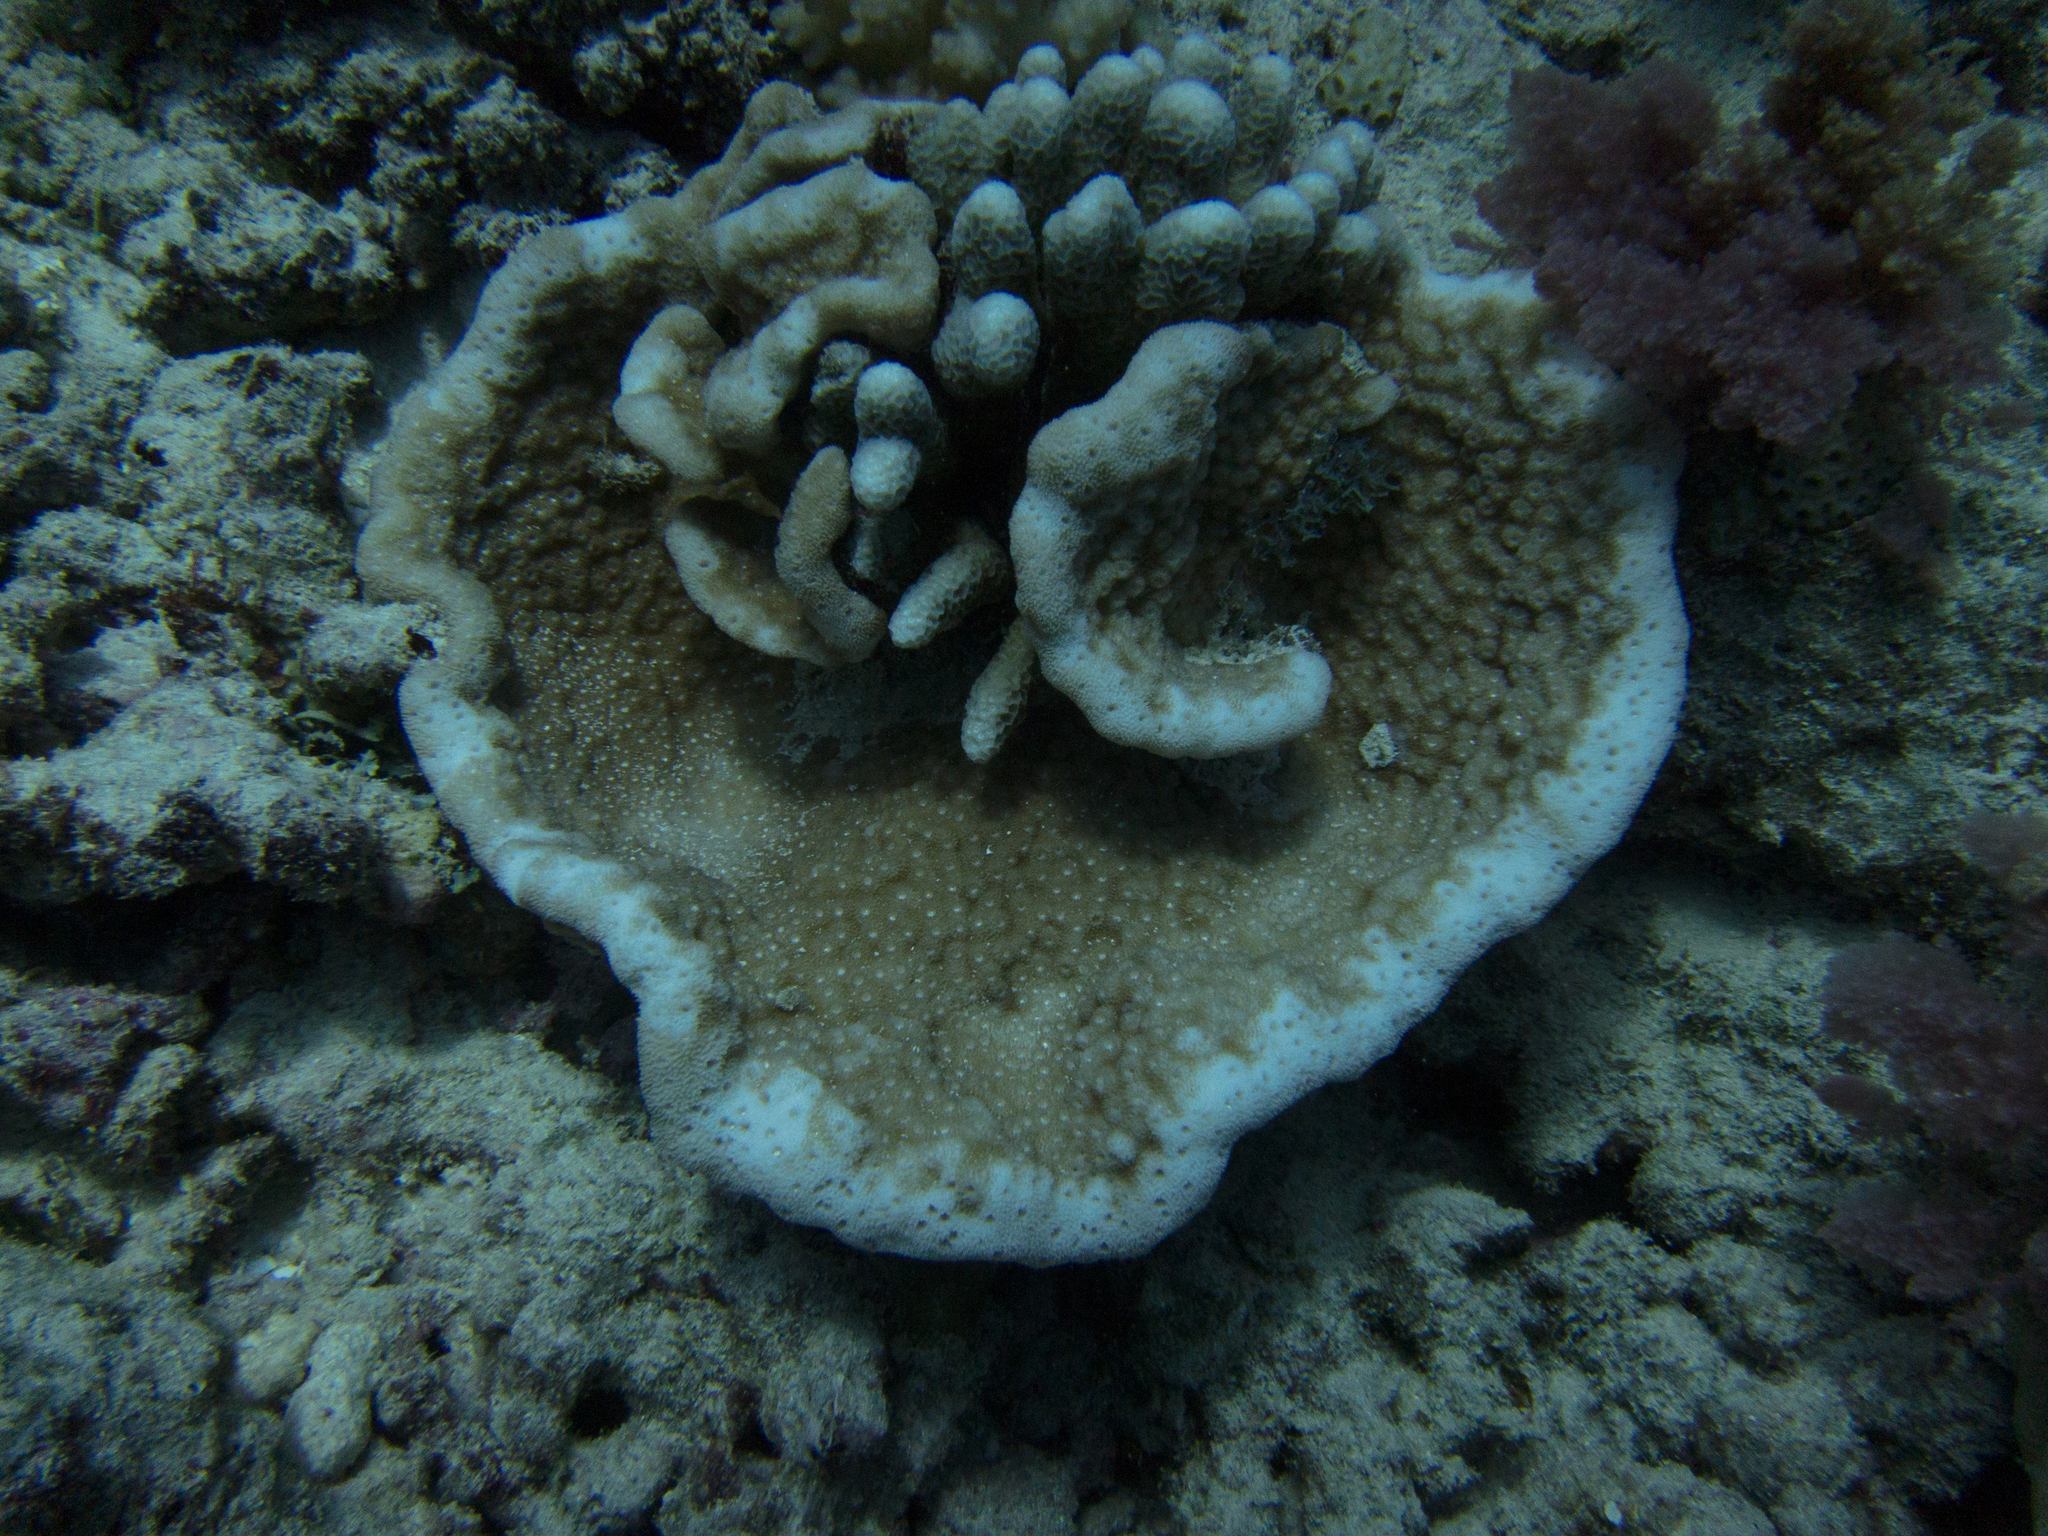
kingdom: Animalia
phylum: Cnidaria
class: Anthozoa
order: Scleractinia
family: Acroporidae
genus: Montipora
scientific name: Montipora angulata
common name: Pore coral
